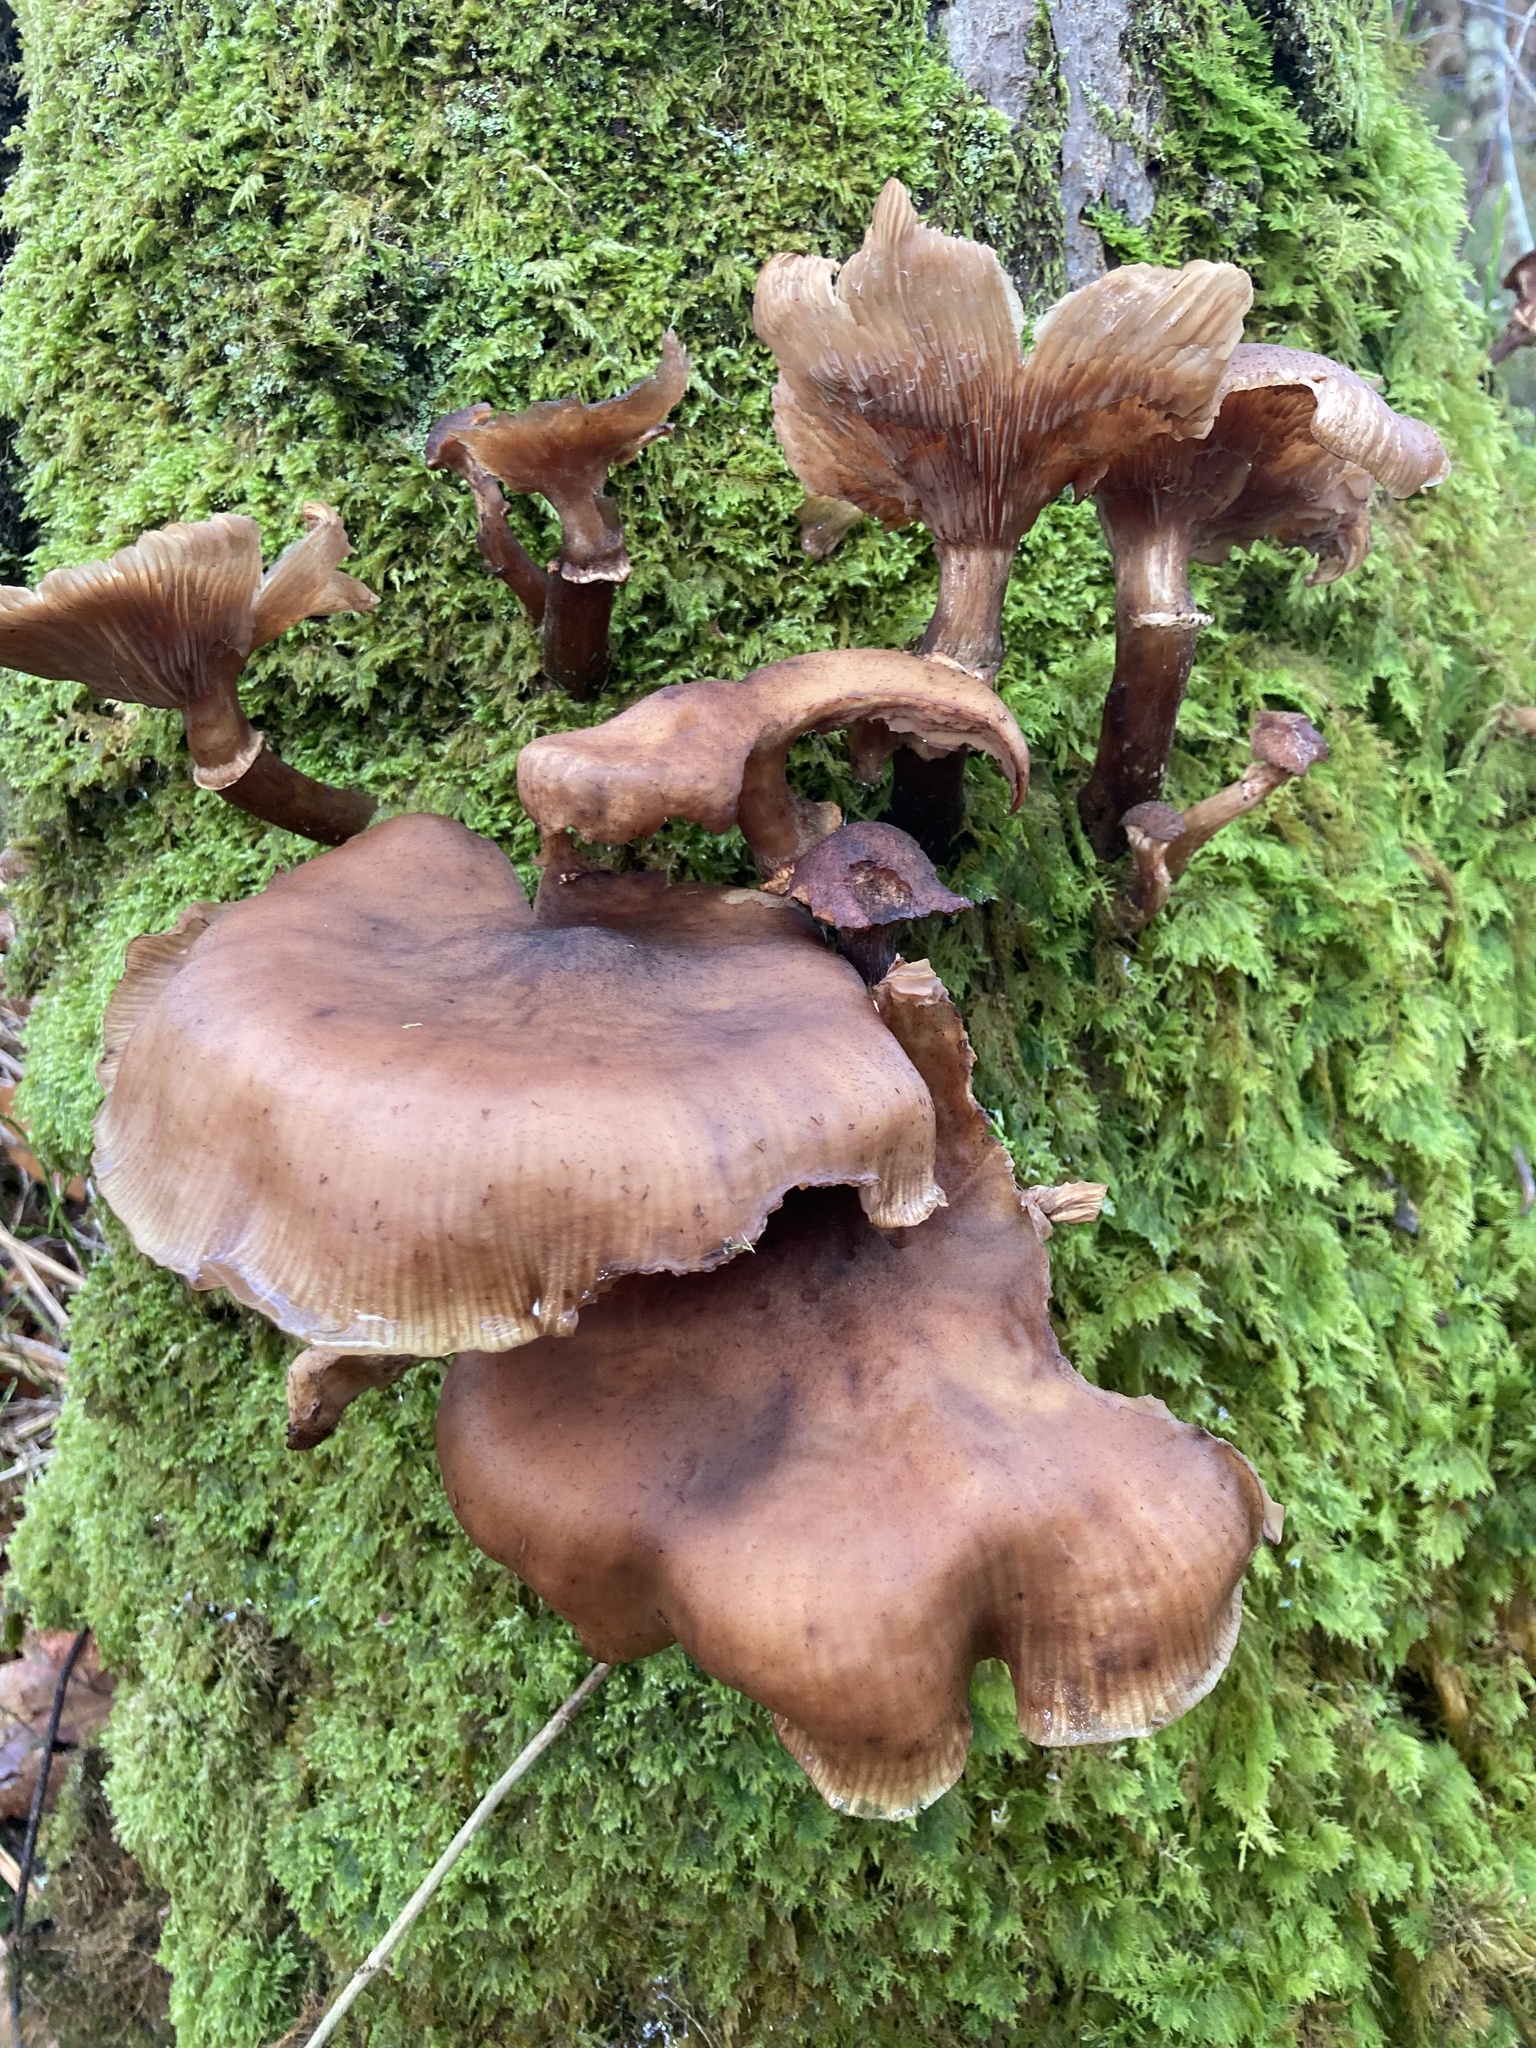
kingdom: Fungi
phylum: Basidiomycota
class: Agaricomycetes
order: Agaricales
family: Physalacriaceae
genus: Armillaria
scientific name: Armillaria ostoyae
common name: Dark honey fungus
